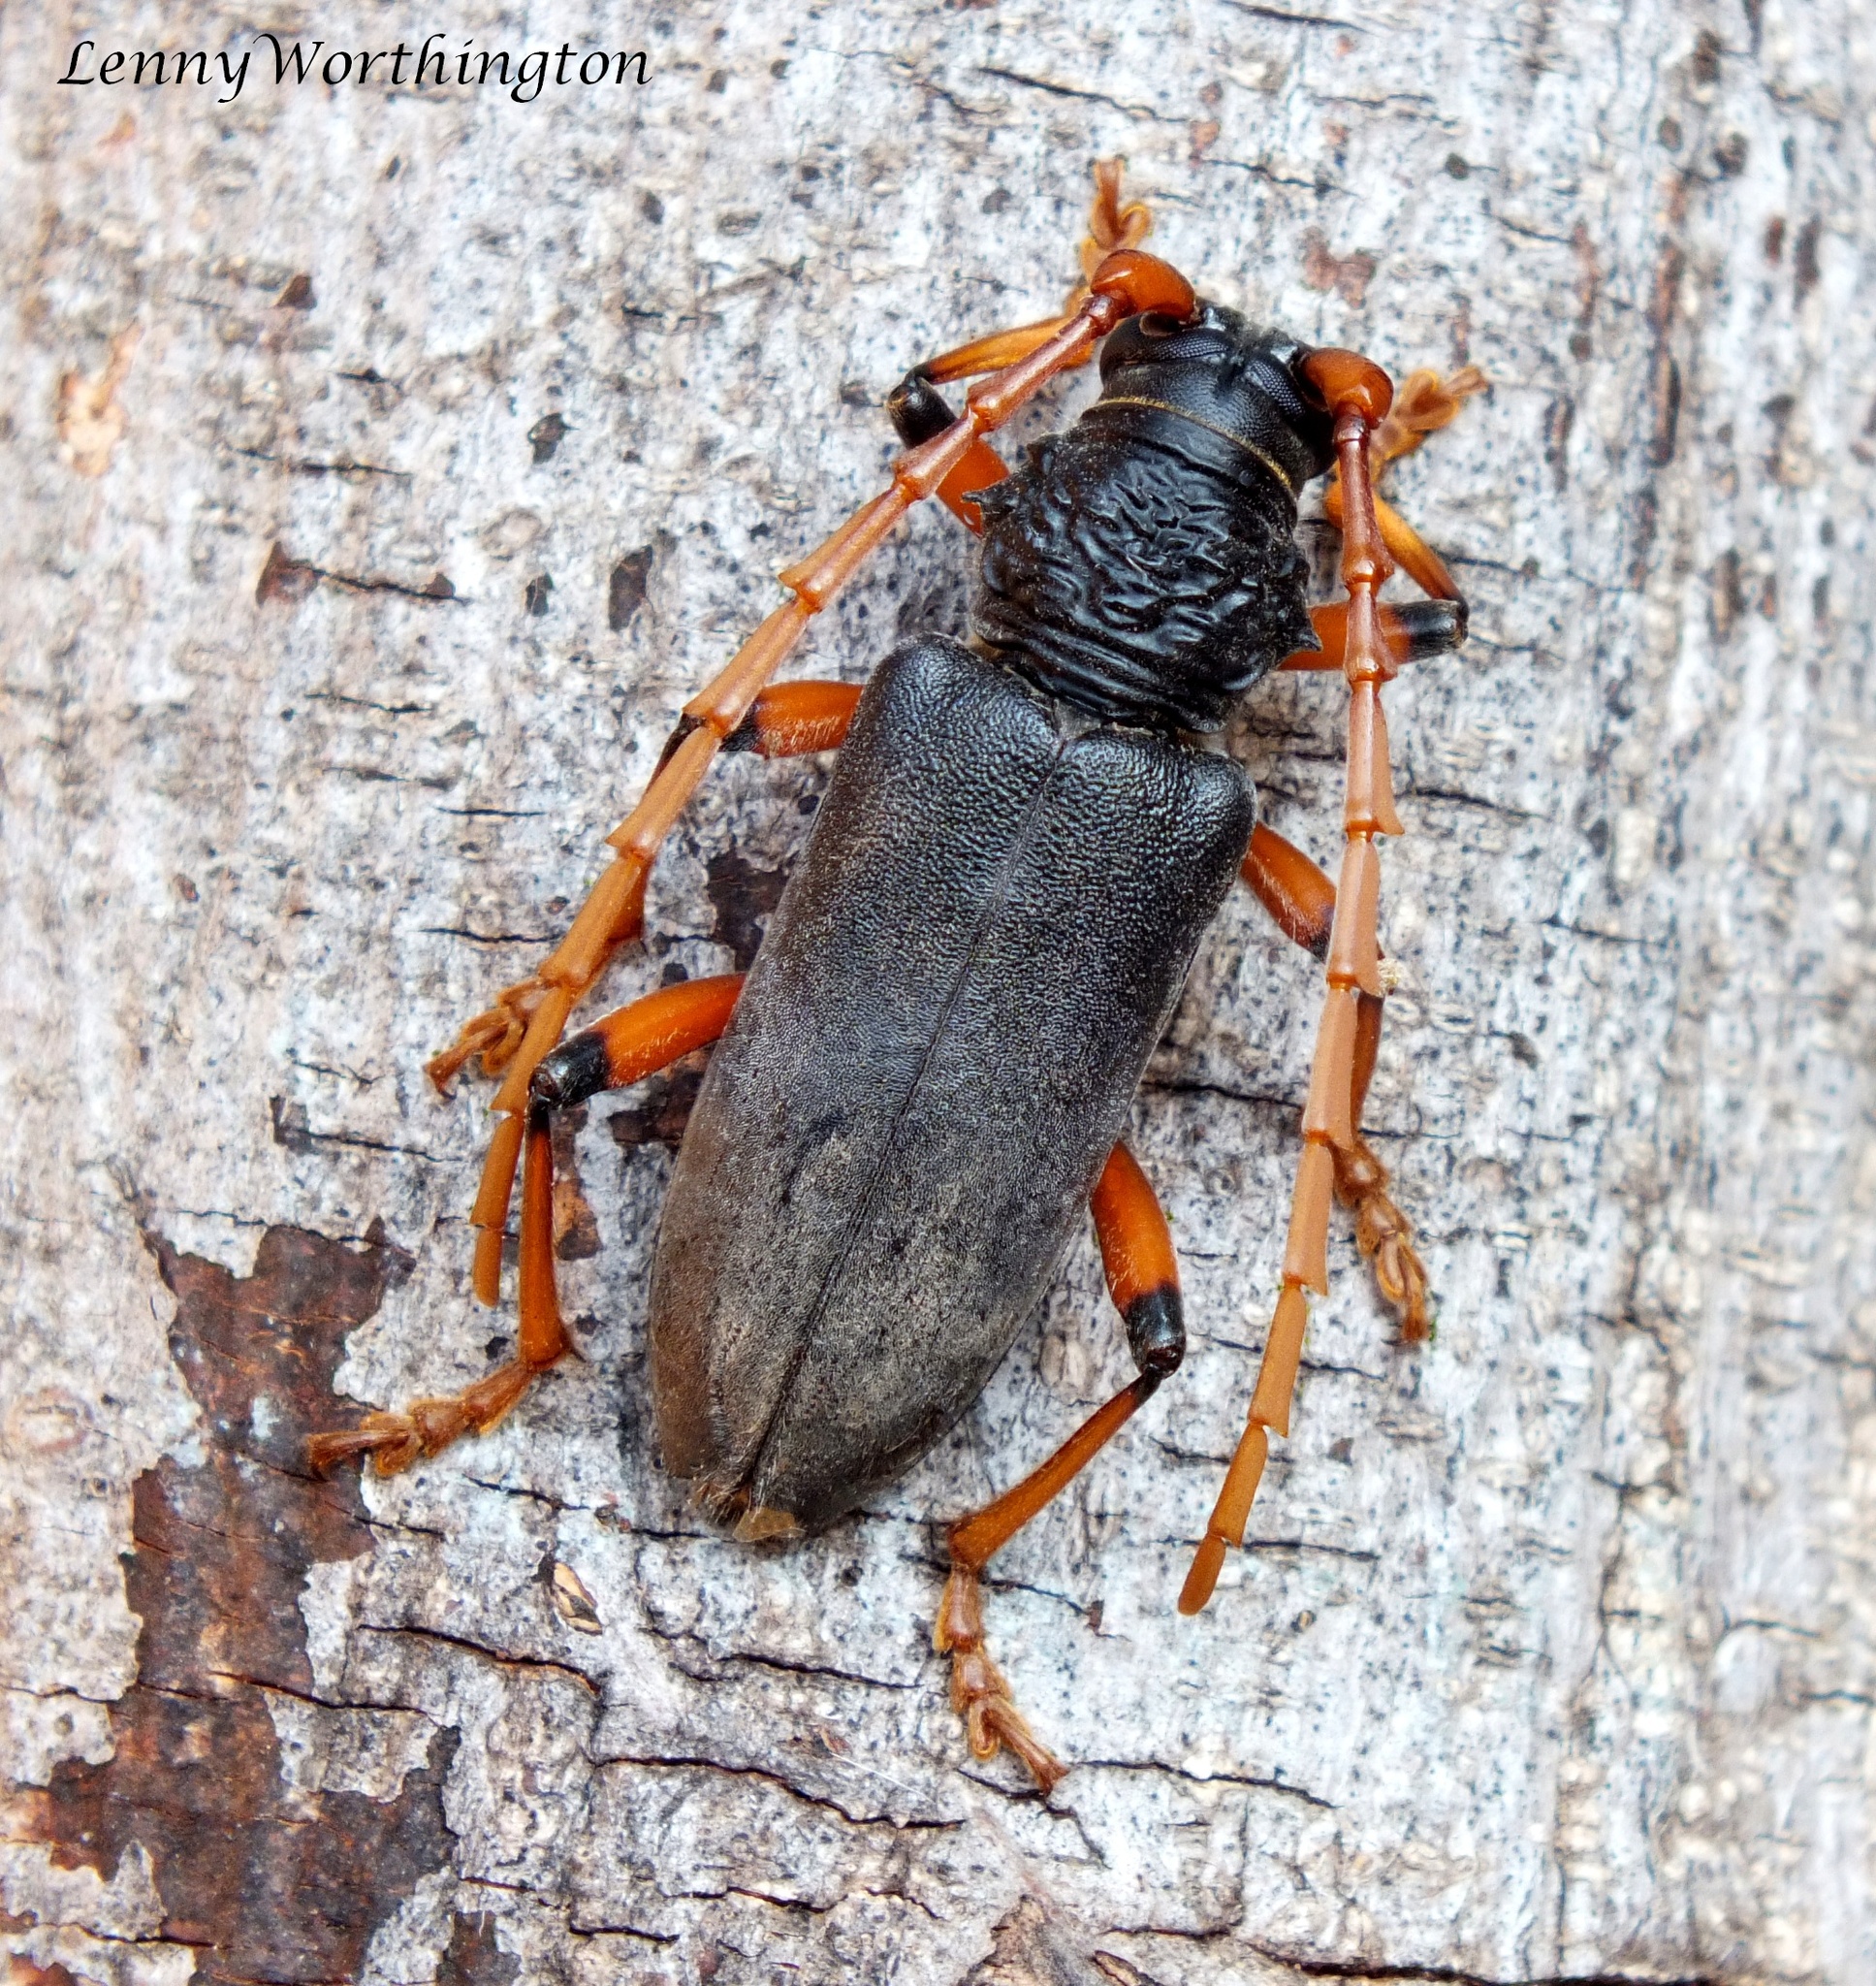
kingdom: Animalia
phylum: Arthropoda
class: Insecta
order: Coleoptera
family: Cerambycidae
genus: Neoplocaederus
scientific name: Neoplocaederus ruficornis
